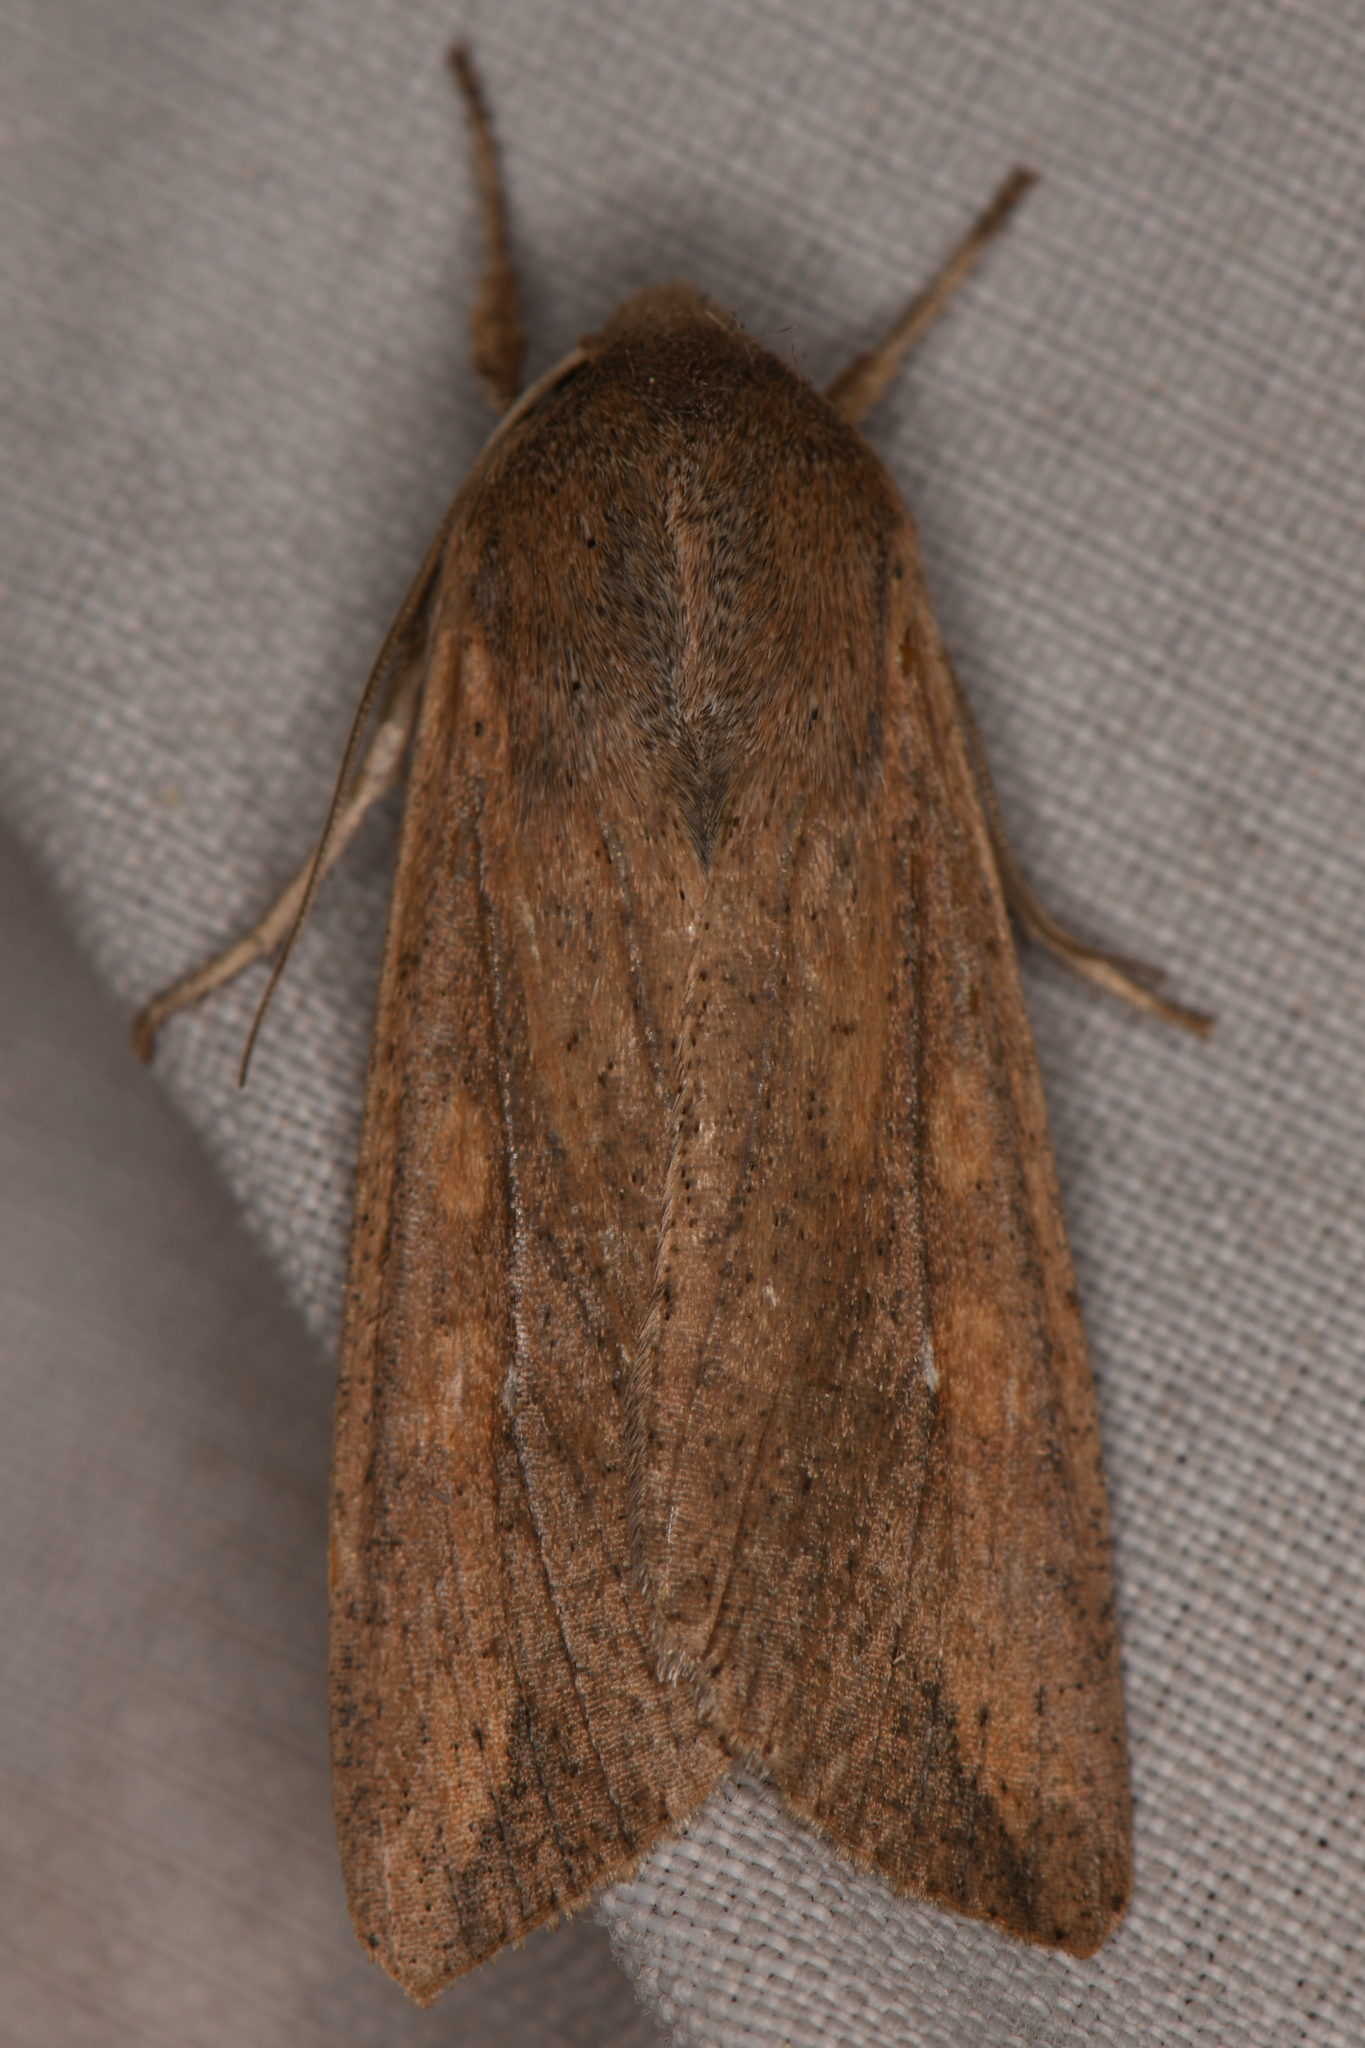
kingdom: Animalia
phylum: Arthropoda
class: Insecta
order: Lepidoptera
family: Noctuidae
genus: Mythimna
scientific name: Mythimna unipuncta
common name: White-speck
